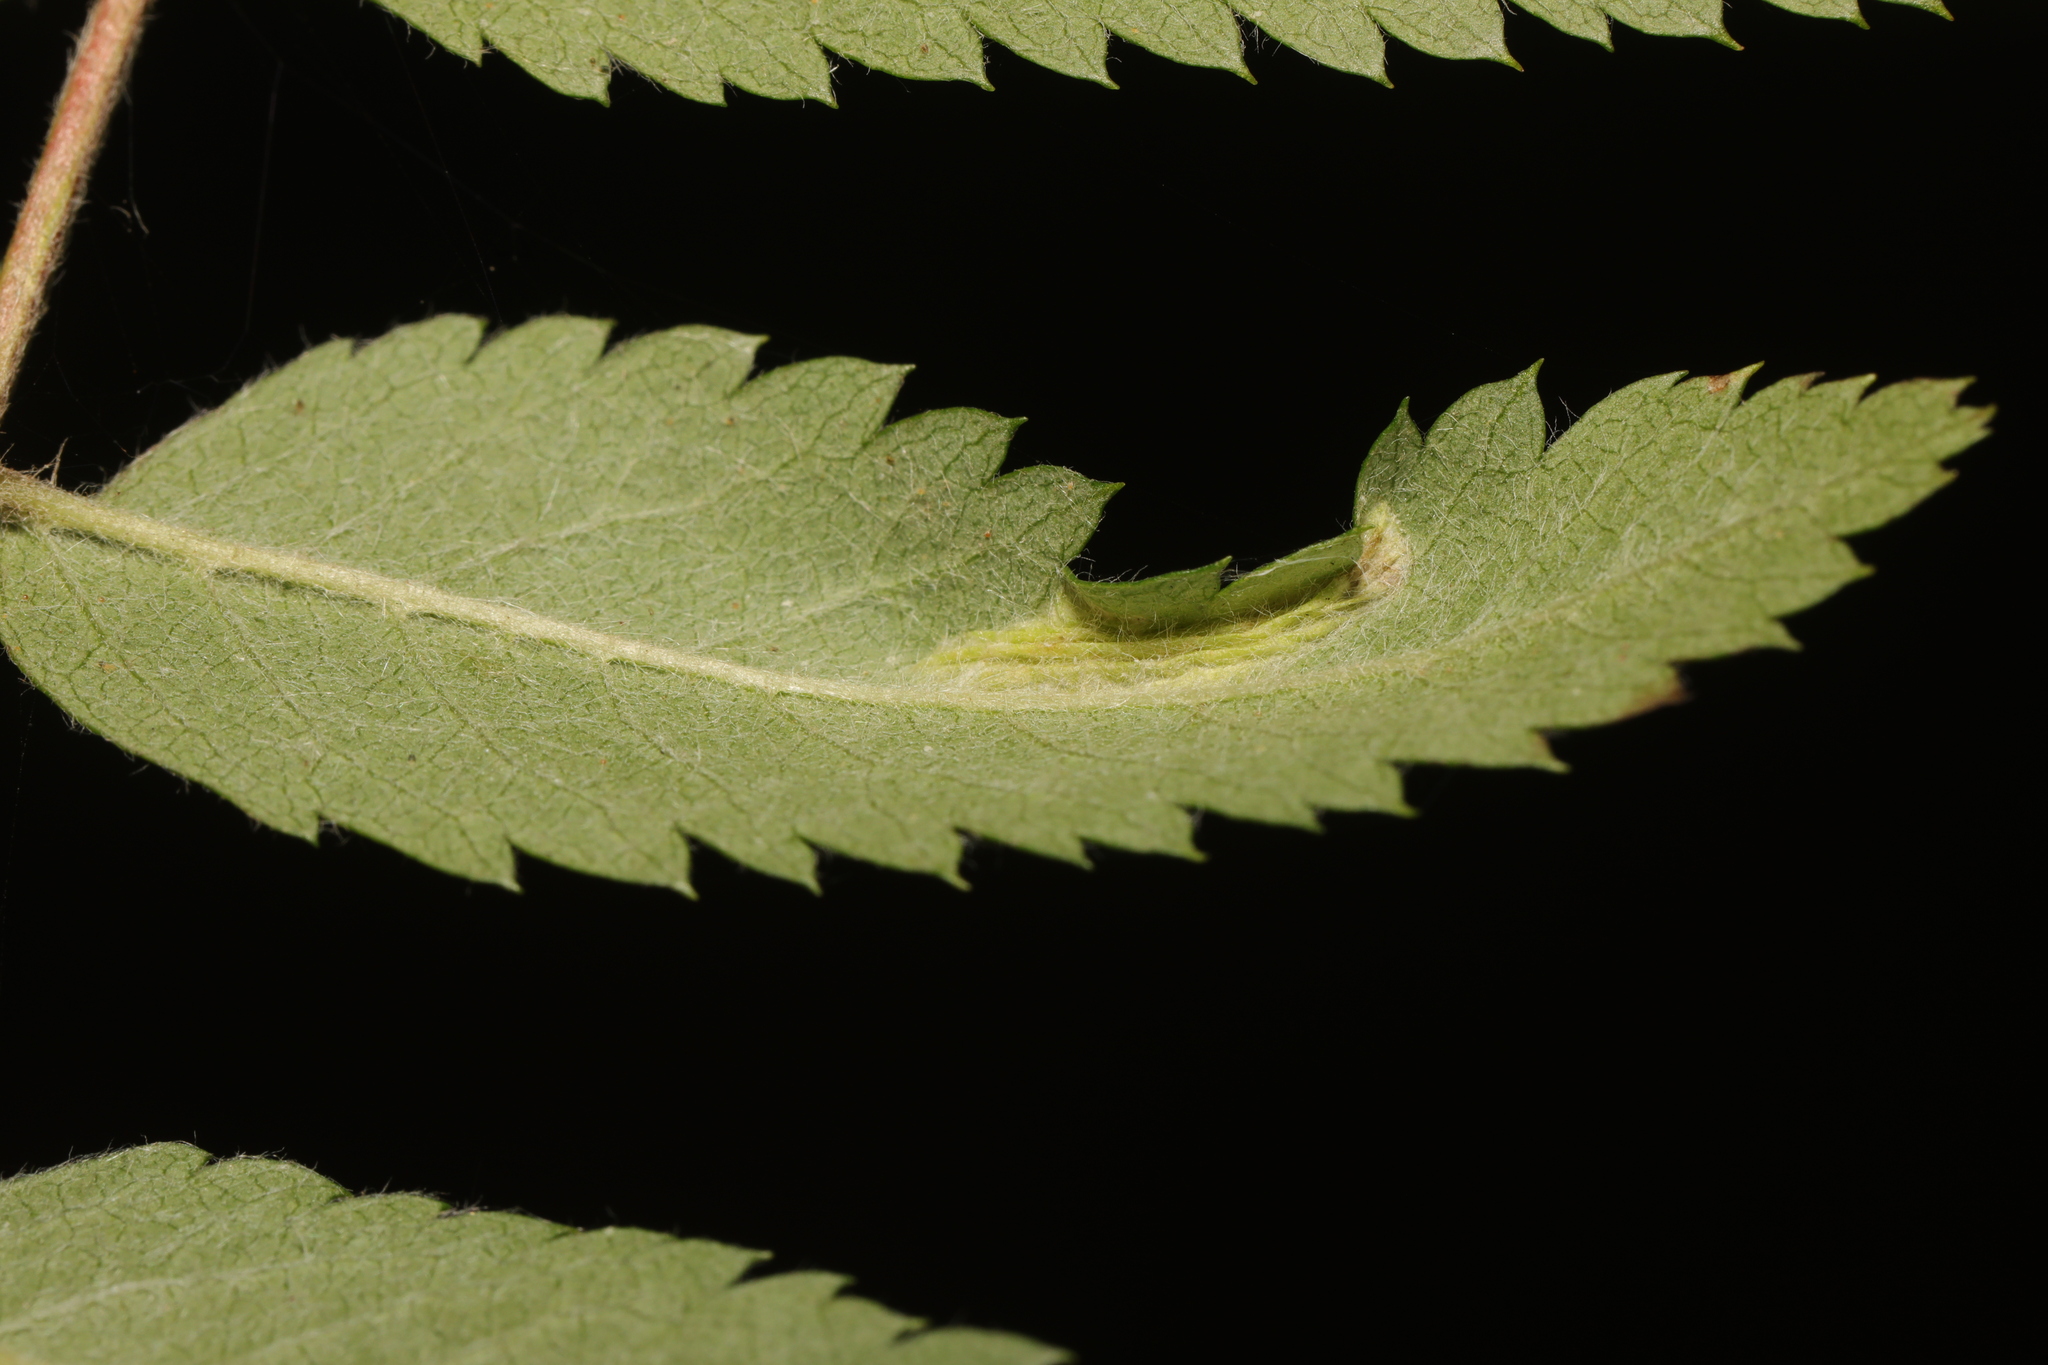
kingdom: Animalia
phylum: Arthropoda
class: Insecta
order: Lepidoptera
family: Gracillariidae
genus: Phyllonorycter
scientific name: Phyllonorycter sorbi
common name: Rowan midget
